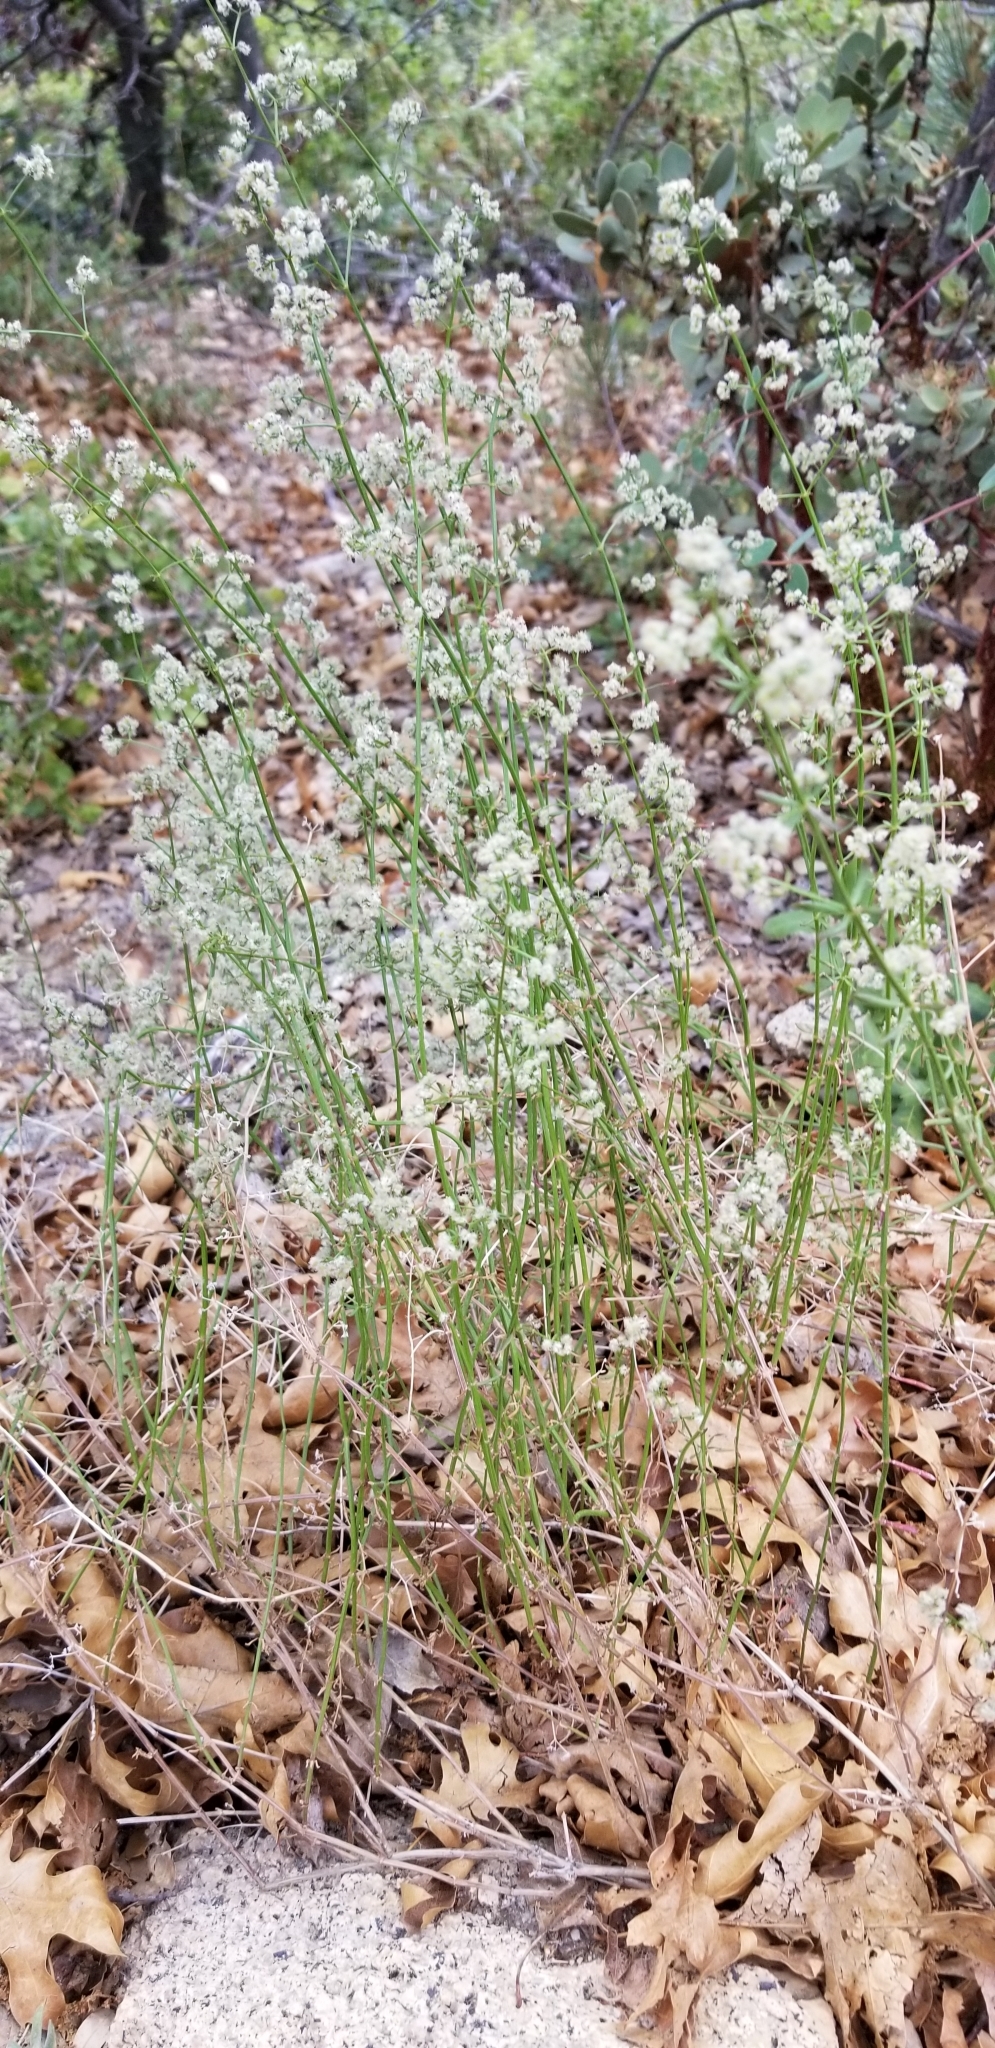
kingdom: Plantae
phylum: Tracheophyta
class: Magnoliopsida
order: Gentianales
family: Rubiaceae
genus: Galium
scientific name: Galium angustifolium
